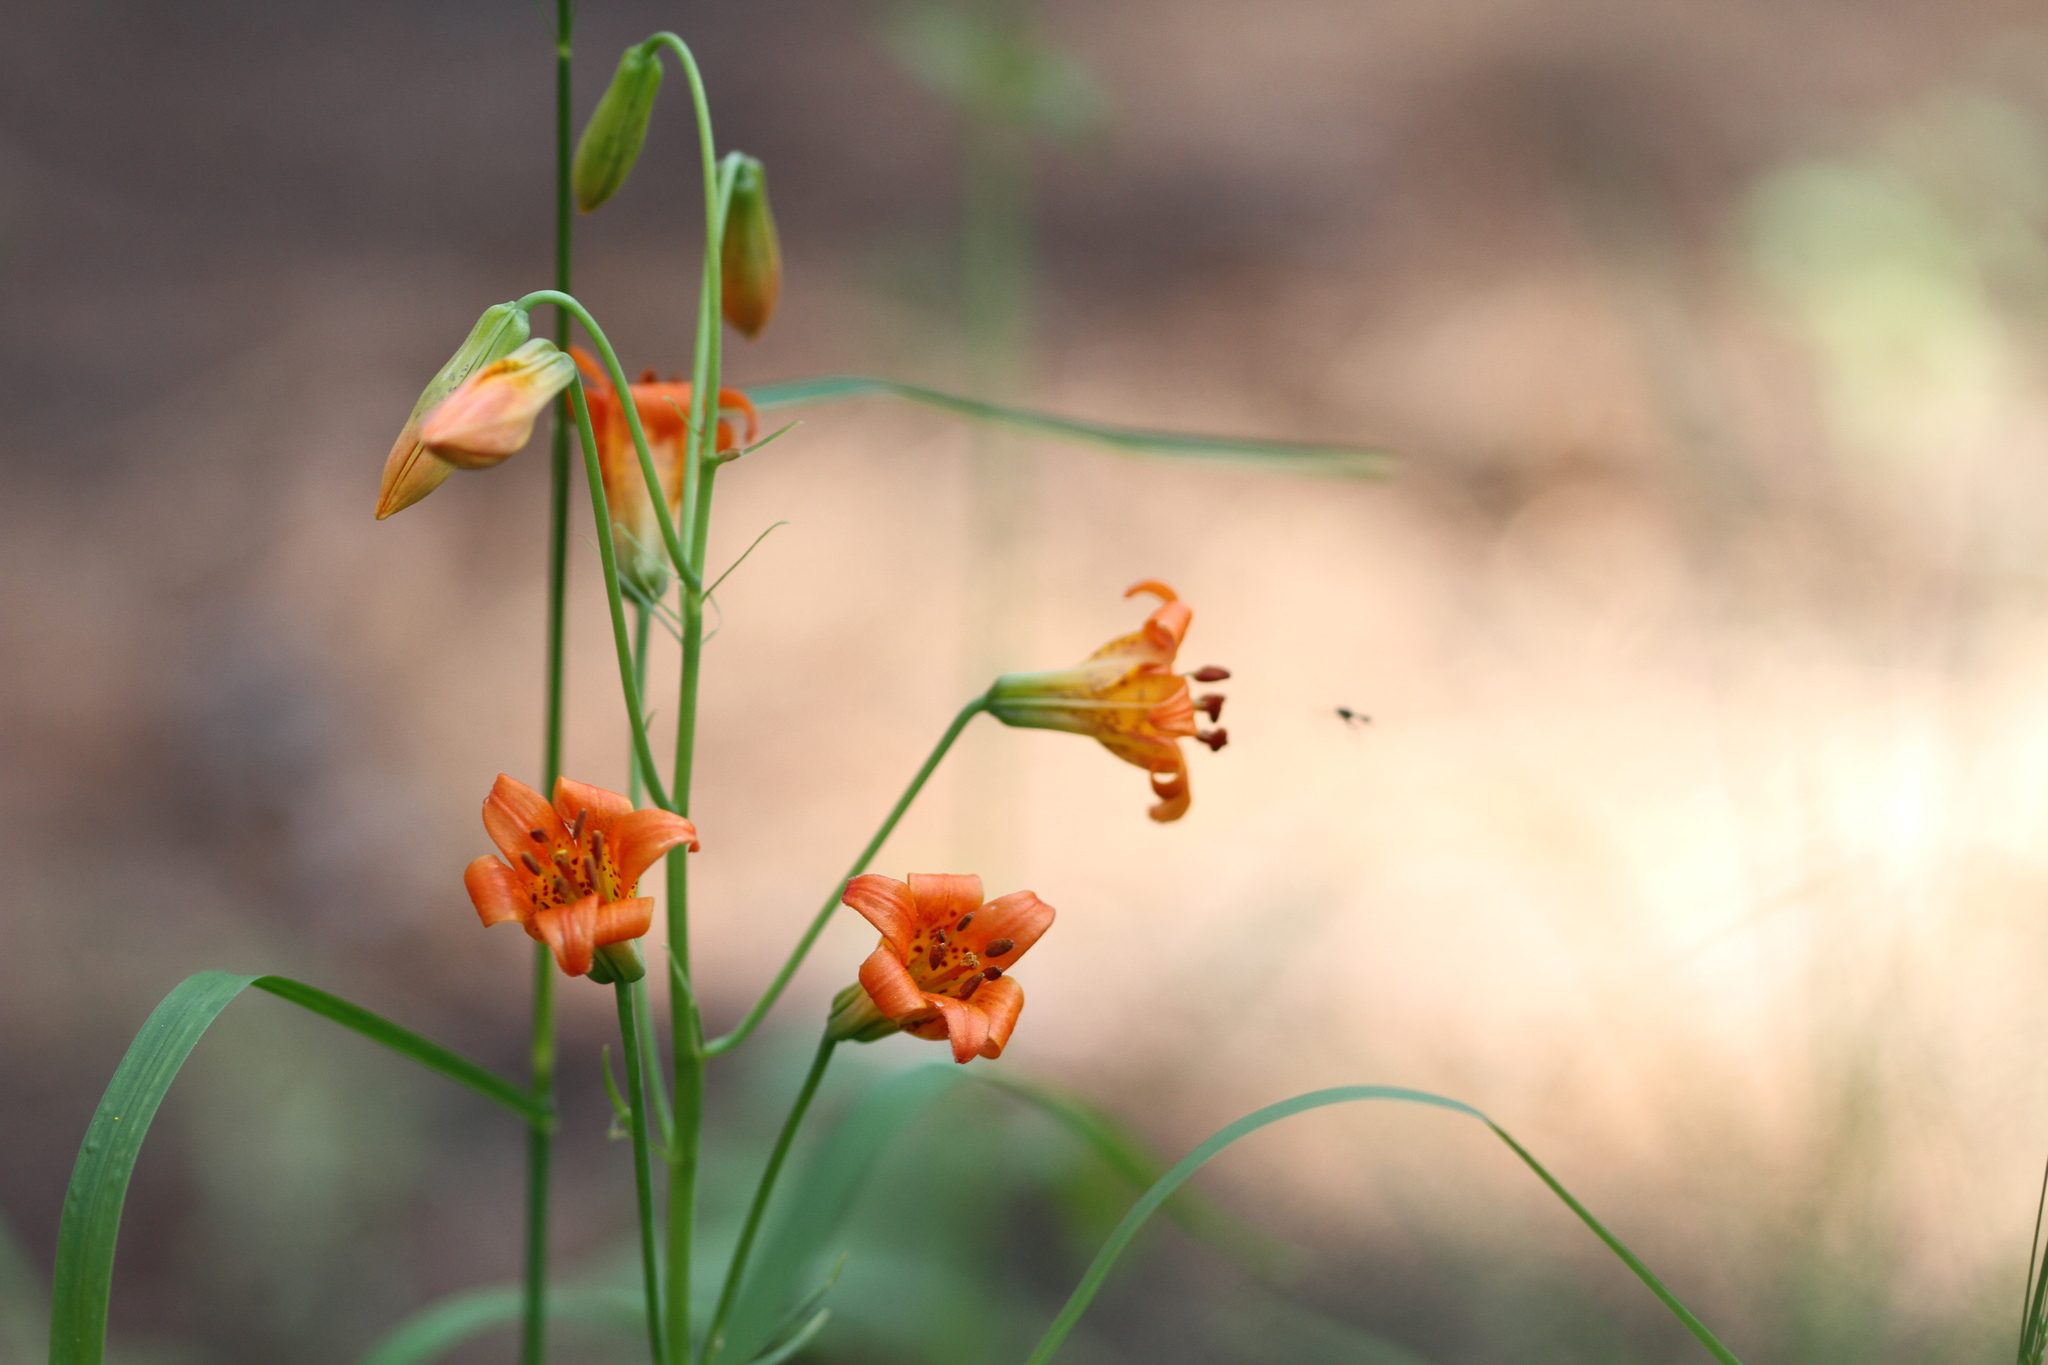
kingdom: Plantae
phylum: Tracheophyta
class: Liliopsida
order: Liliales
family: Liliaceae
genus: Lilium
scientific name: Lilium parvum
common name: Alpine lily
